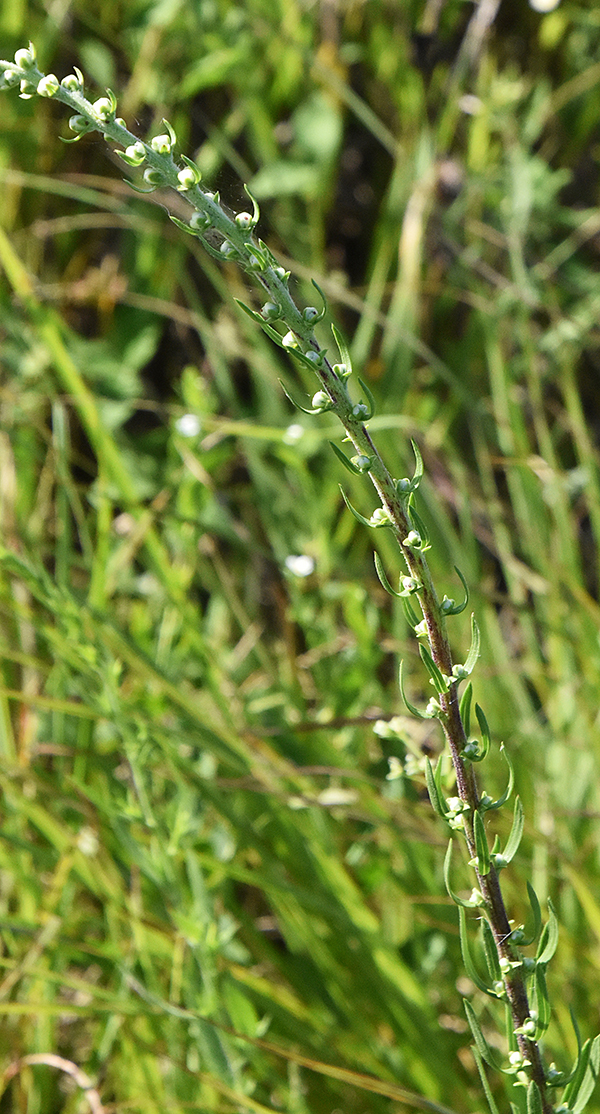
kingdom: Plantae
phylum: Tracheophyta
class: Magnoliopsida
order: Asterales
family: Asteraceae
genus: Liatris
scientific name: Liatris aspera
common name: Lacerate blazing-star
